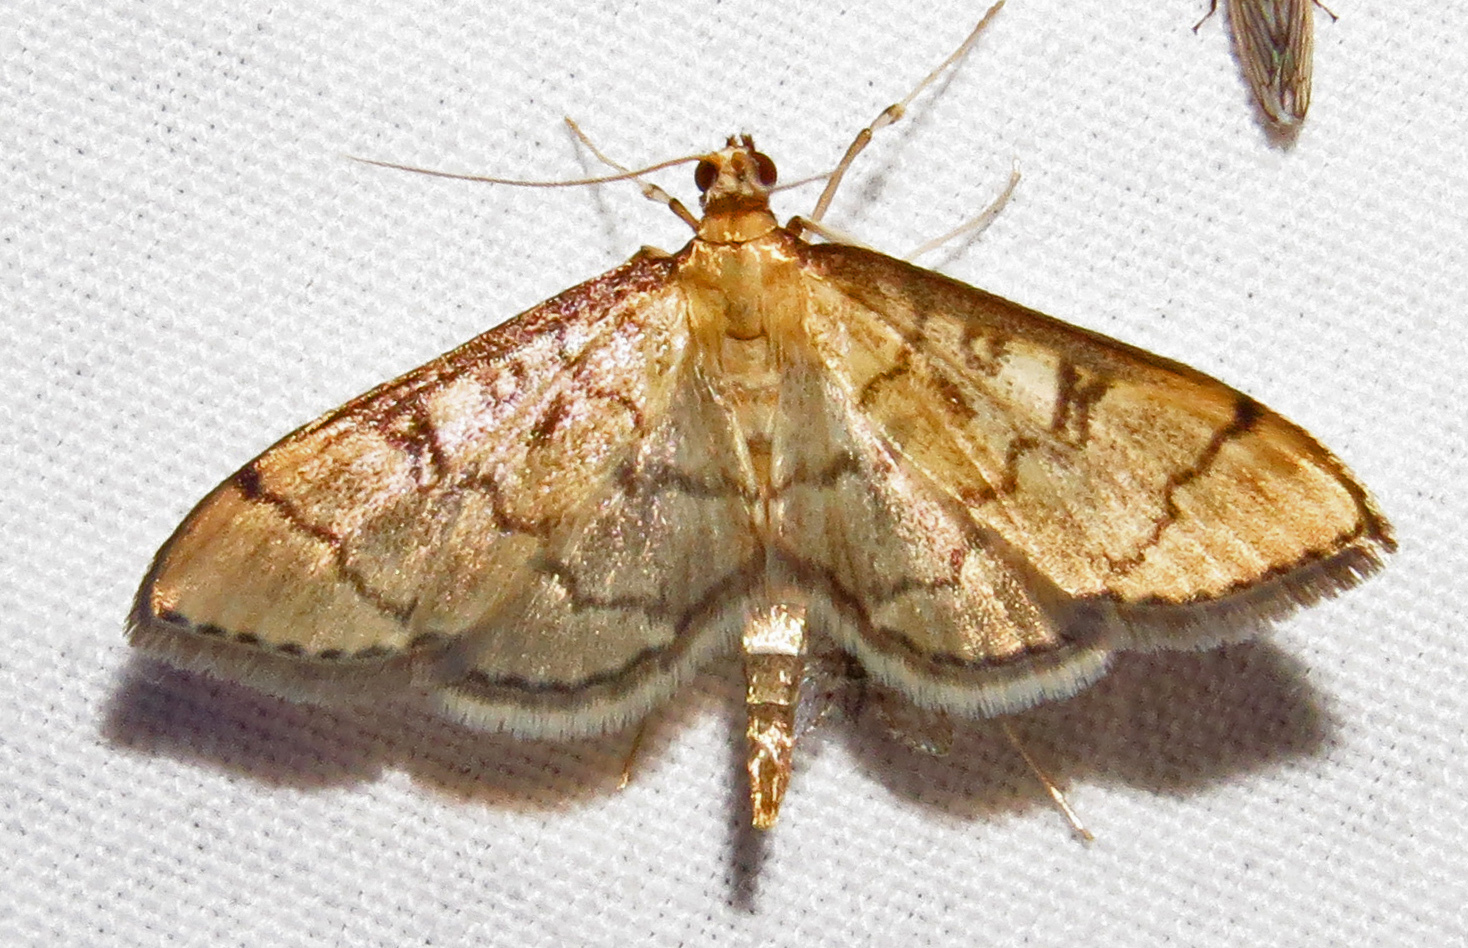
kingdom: Animalia
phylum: Arthropoda
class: Insecta
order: Lepidoptera
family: Crambidae
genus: Lamprosema
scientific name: Lamprosema Blepharomastix ranalis
